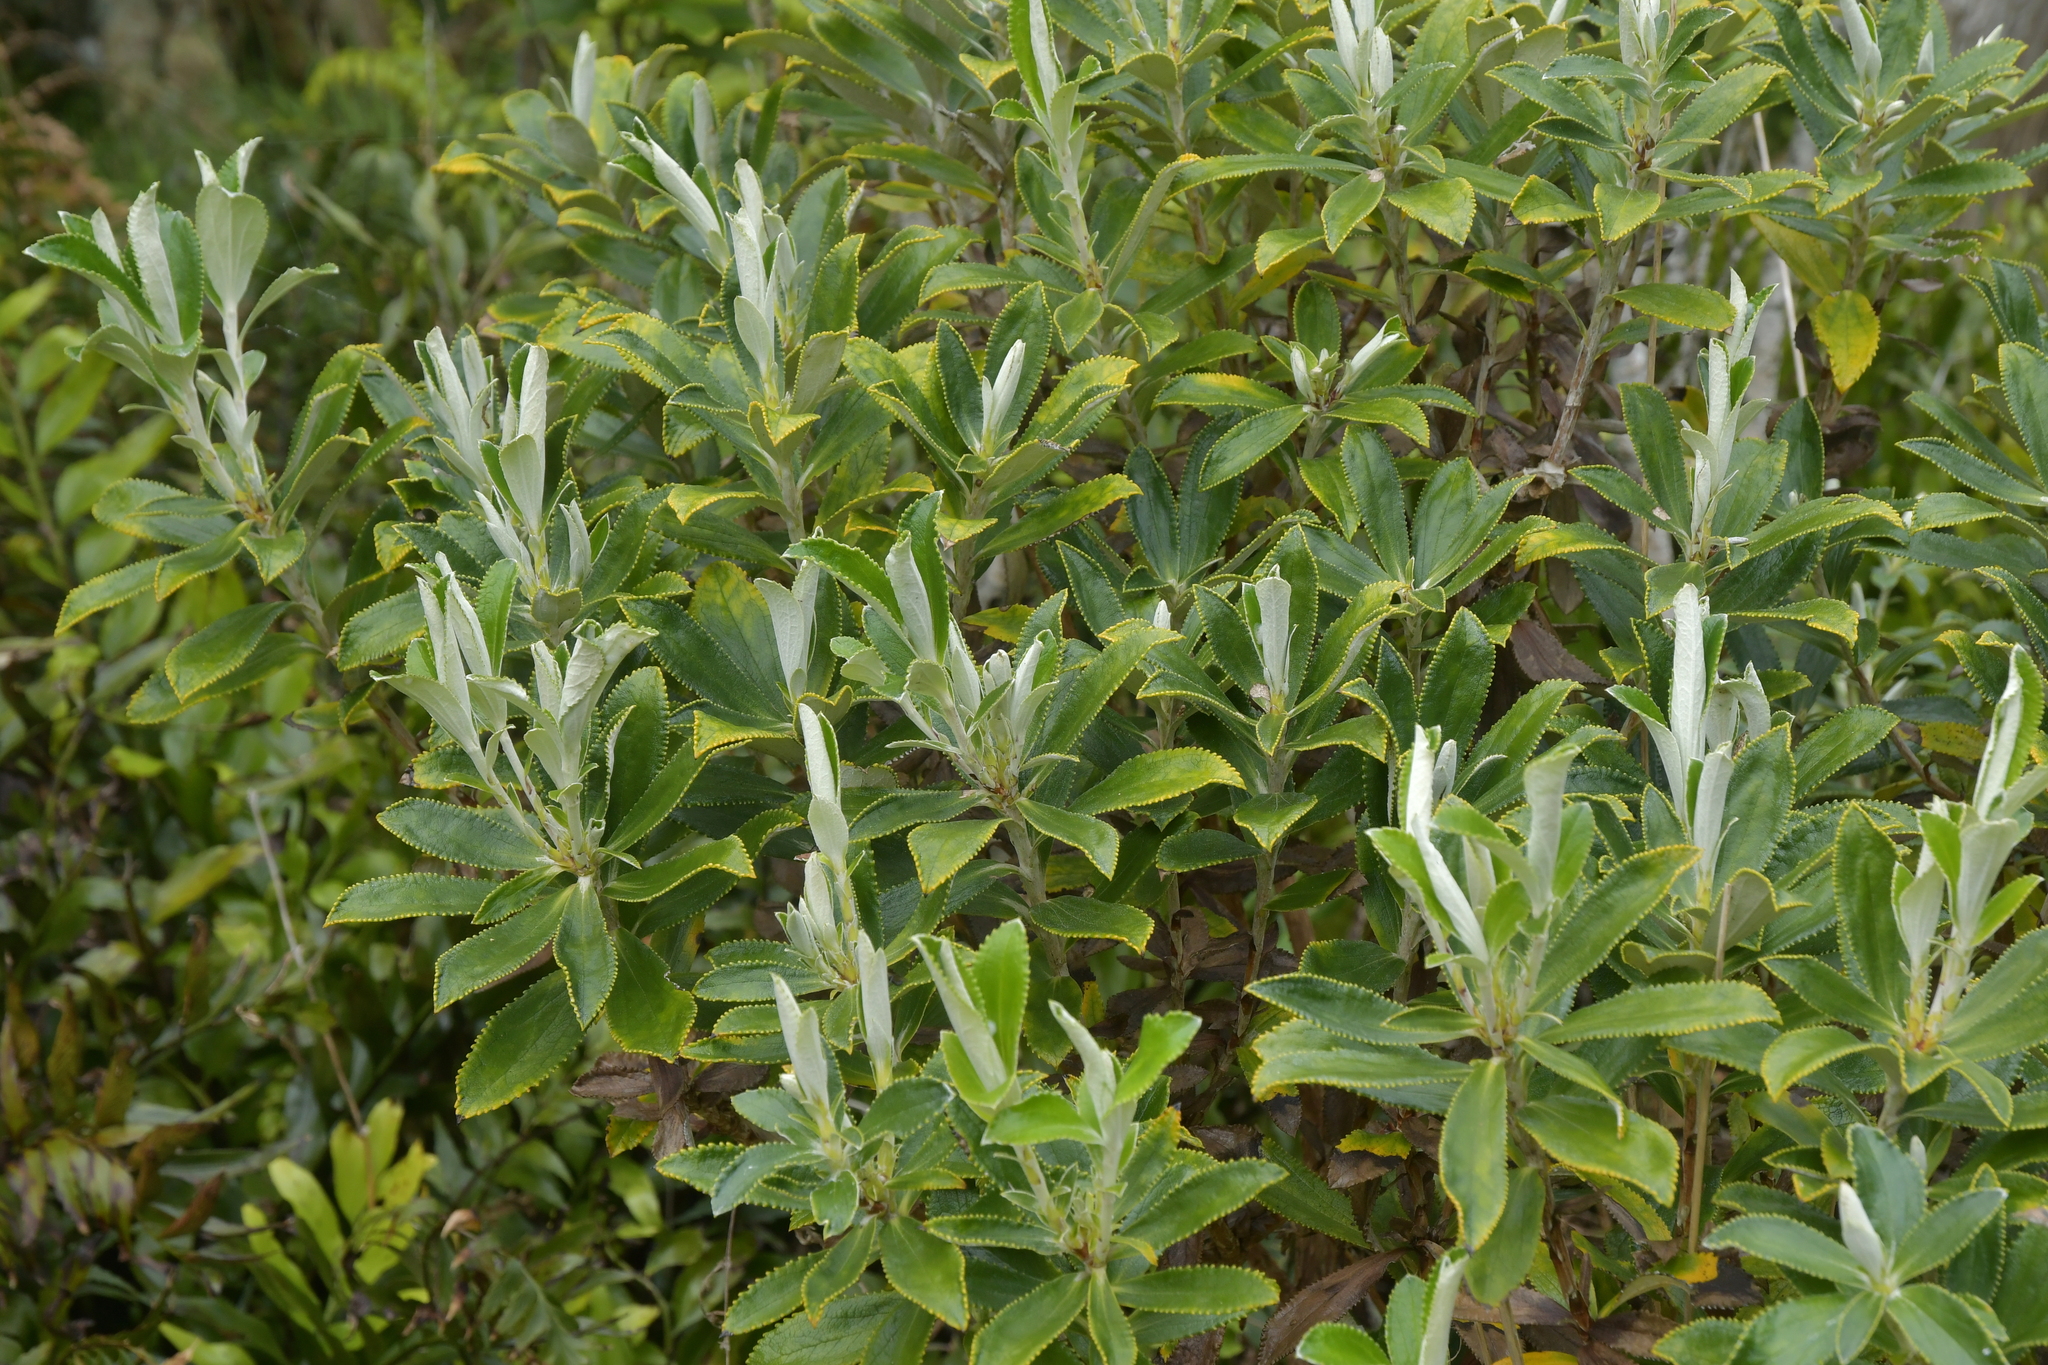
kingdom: Plantae
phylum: Tracheophyta
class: Magnoliopsida
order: Asterales
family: Asteraceae
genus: Macrolearia
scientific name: Macrolearia chathamica
